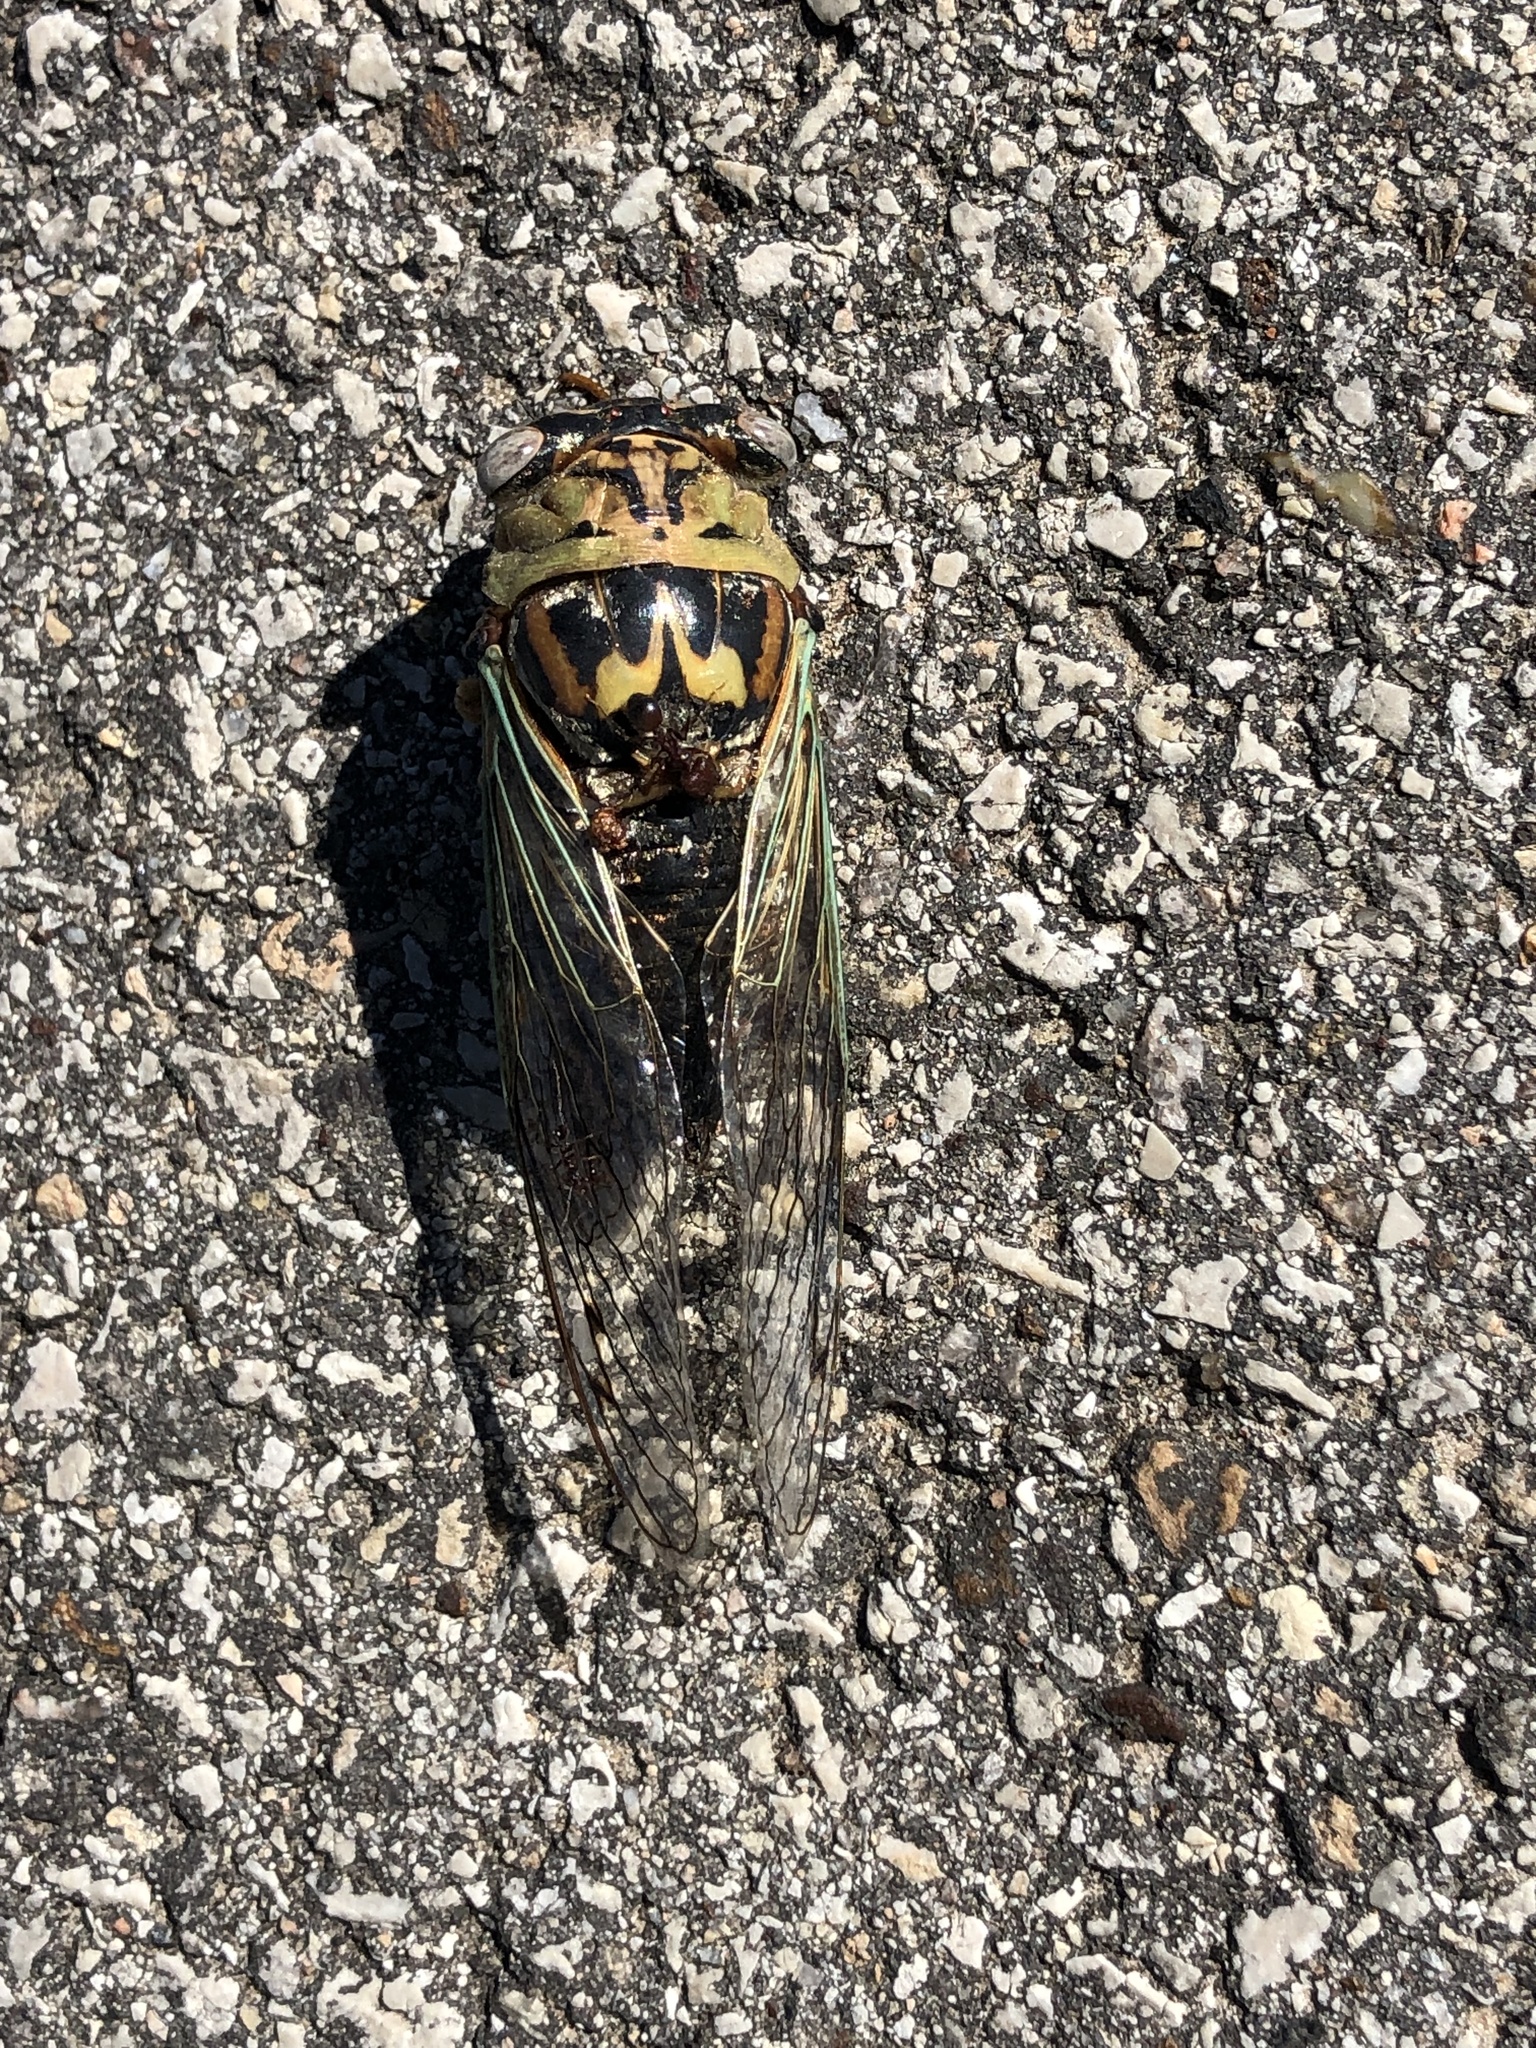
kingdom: Animalia
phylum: Arthropoda
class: Insecta
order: Hemiptera
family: Cicadidae
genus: Megatibicen
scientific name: Megatibicen resh
